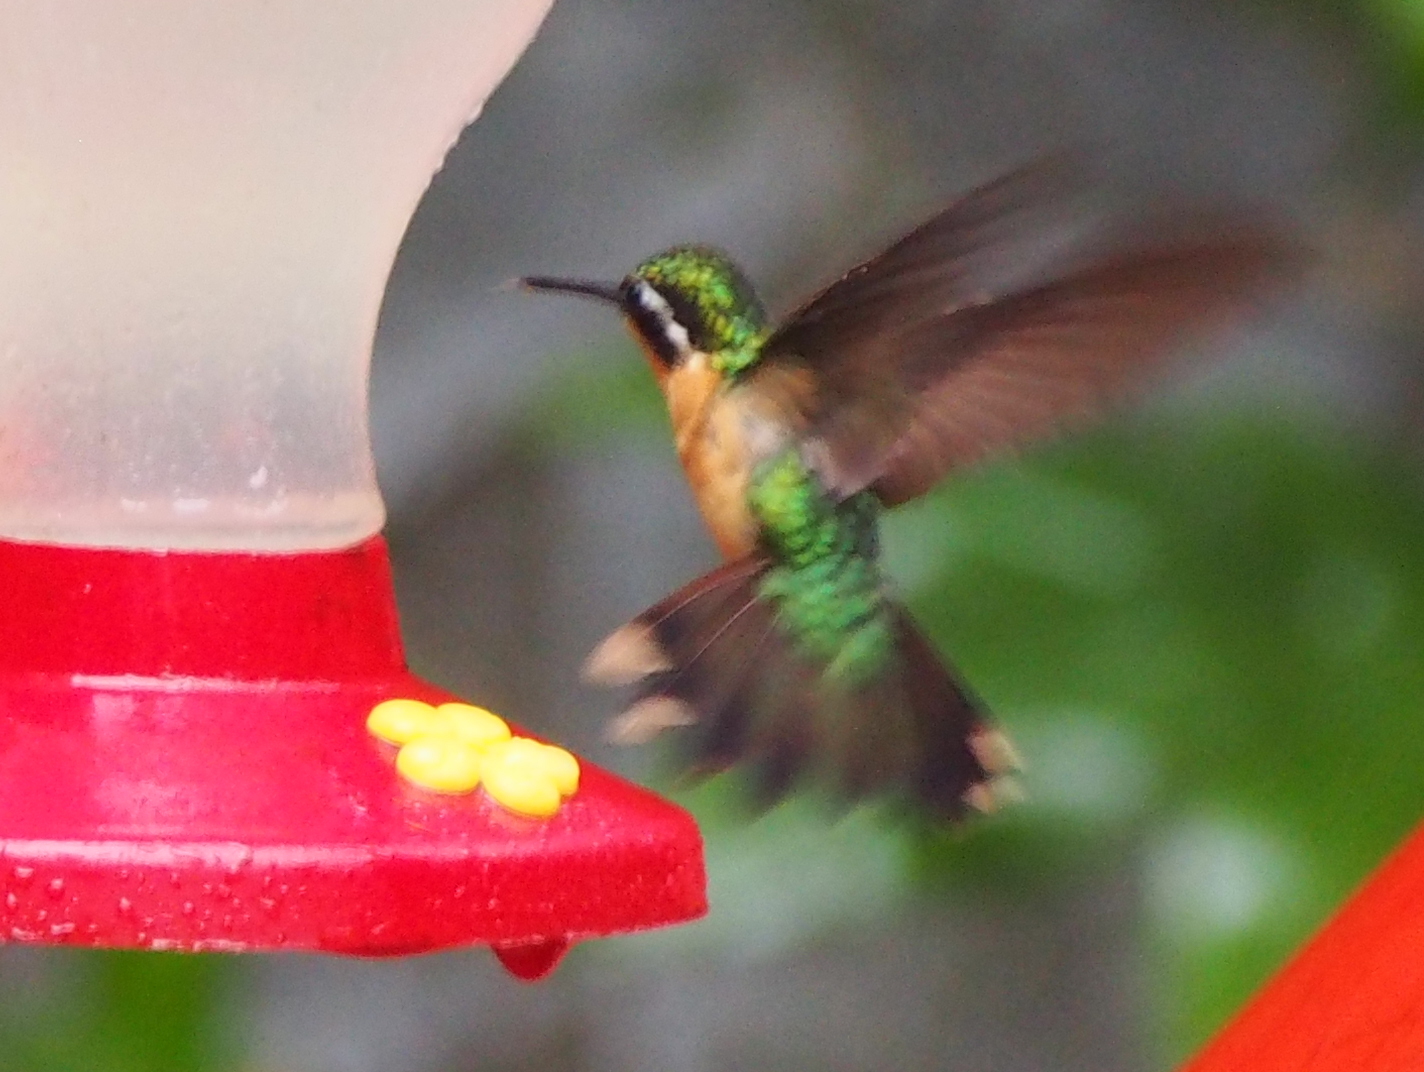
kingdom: Animalia
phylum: Chordata
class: Aves
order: Apodiformes
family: Trochilidae
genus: Lampornis
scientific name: Lampornis calolaemus
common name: Purple-throated mountain-gem
